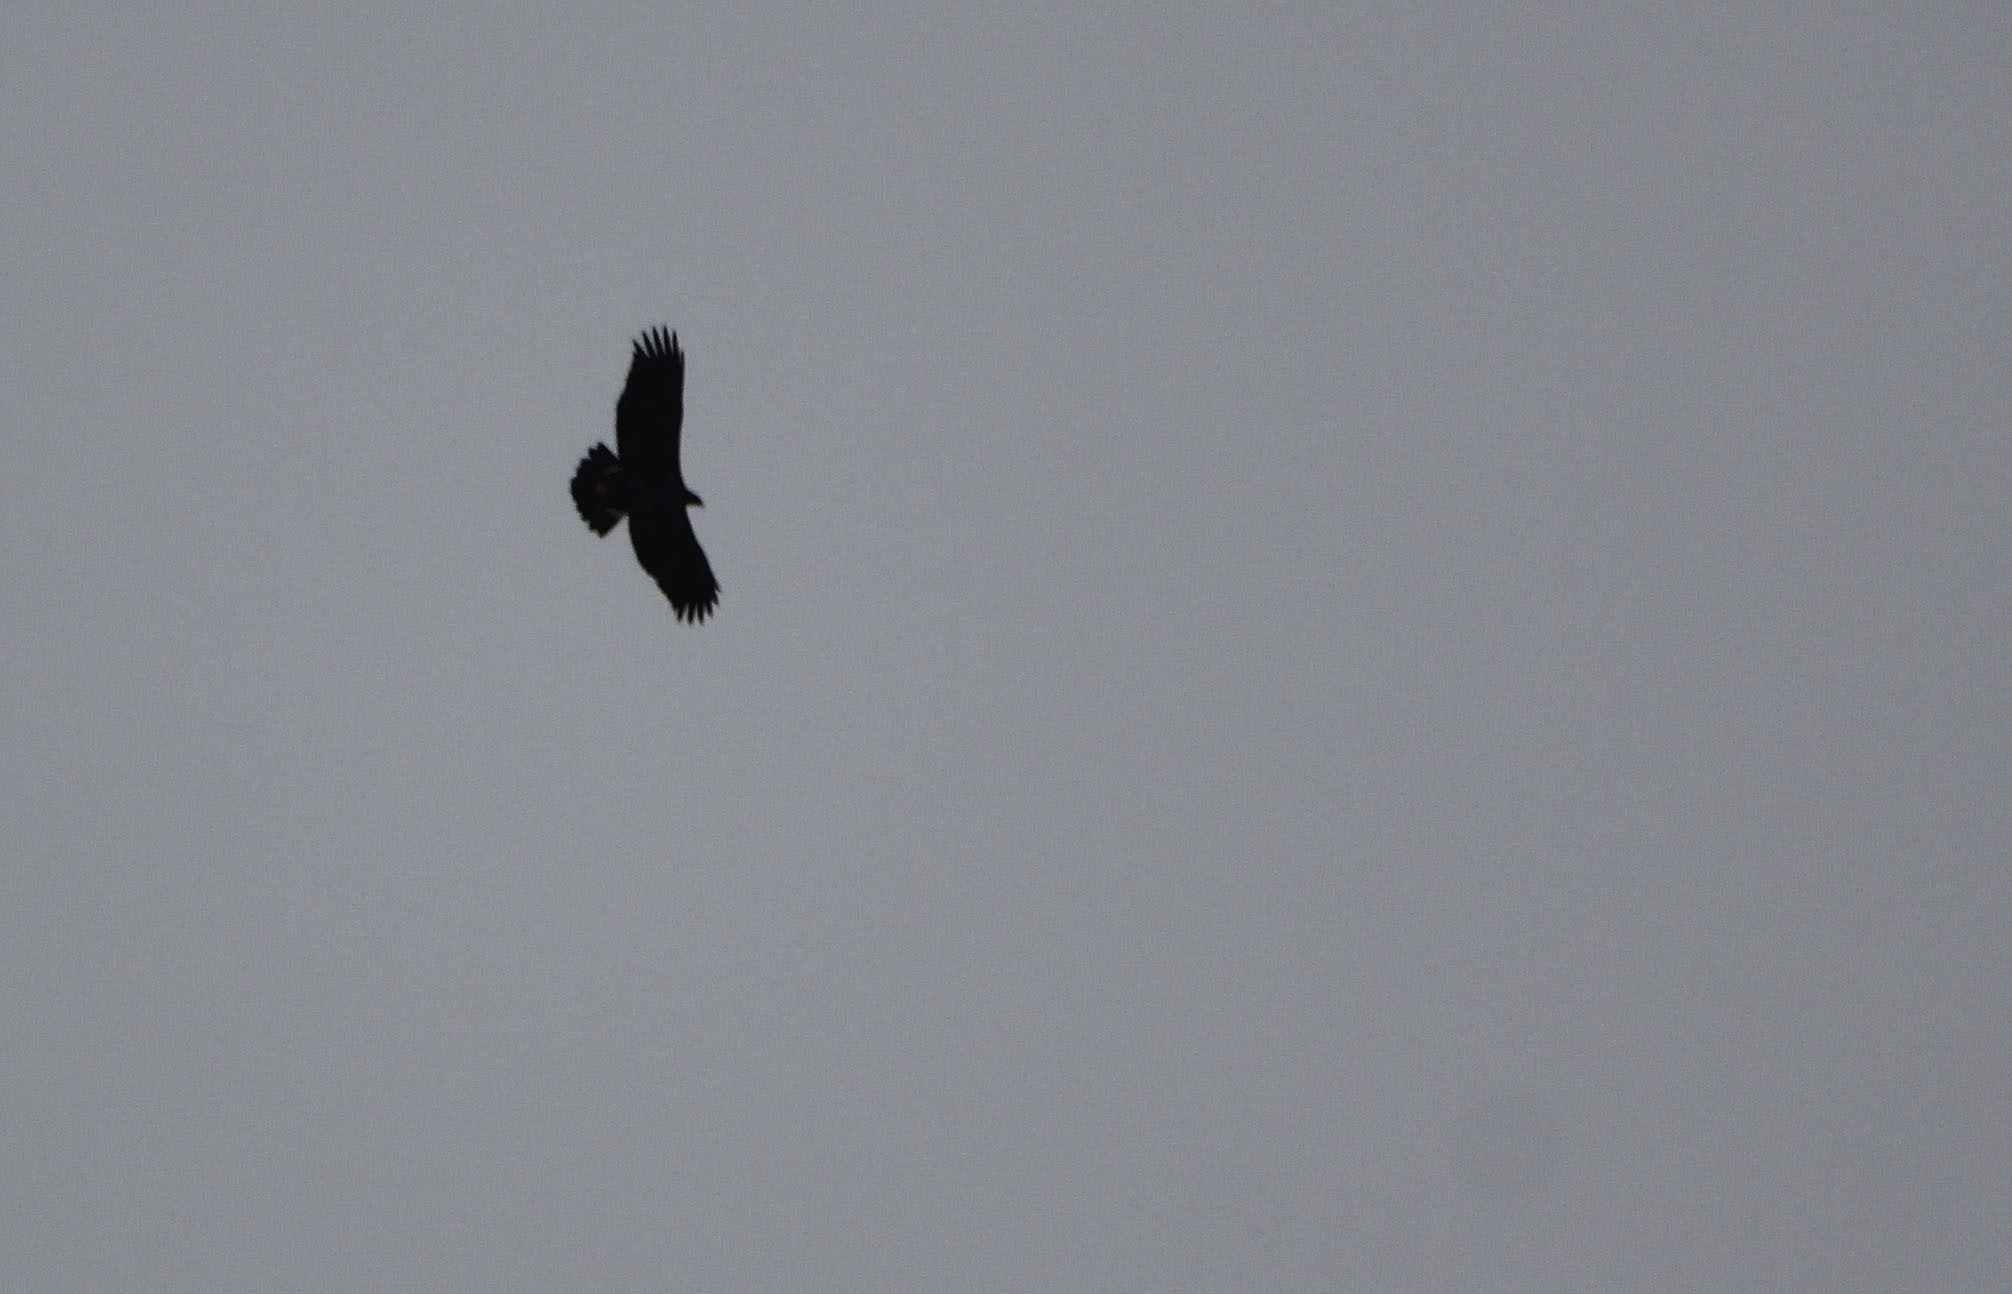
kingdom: Animalia
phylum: Chordata
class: Aves
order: Accipitriformes
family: Accipitridae
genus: Aquila
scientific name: Aquila chrysaetos
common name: Golden eagle
